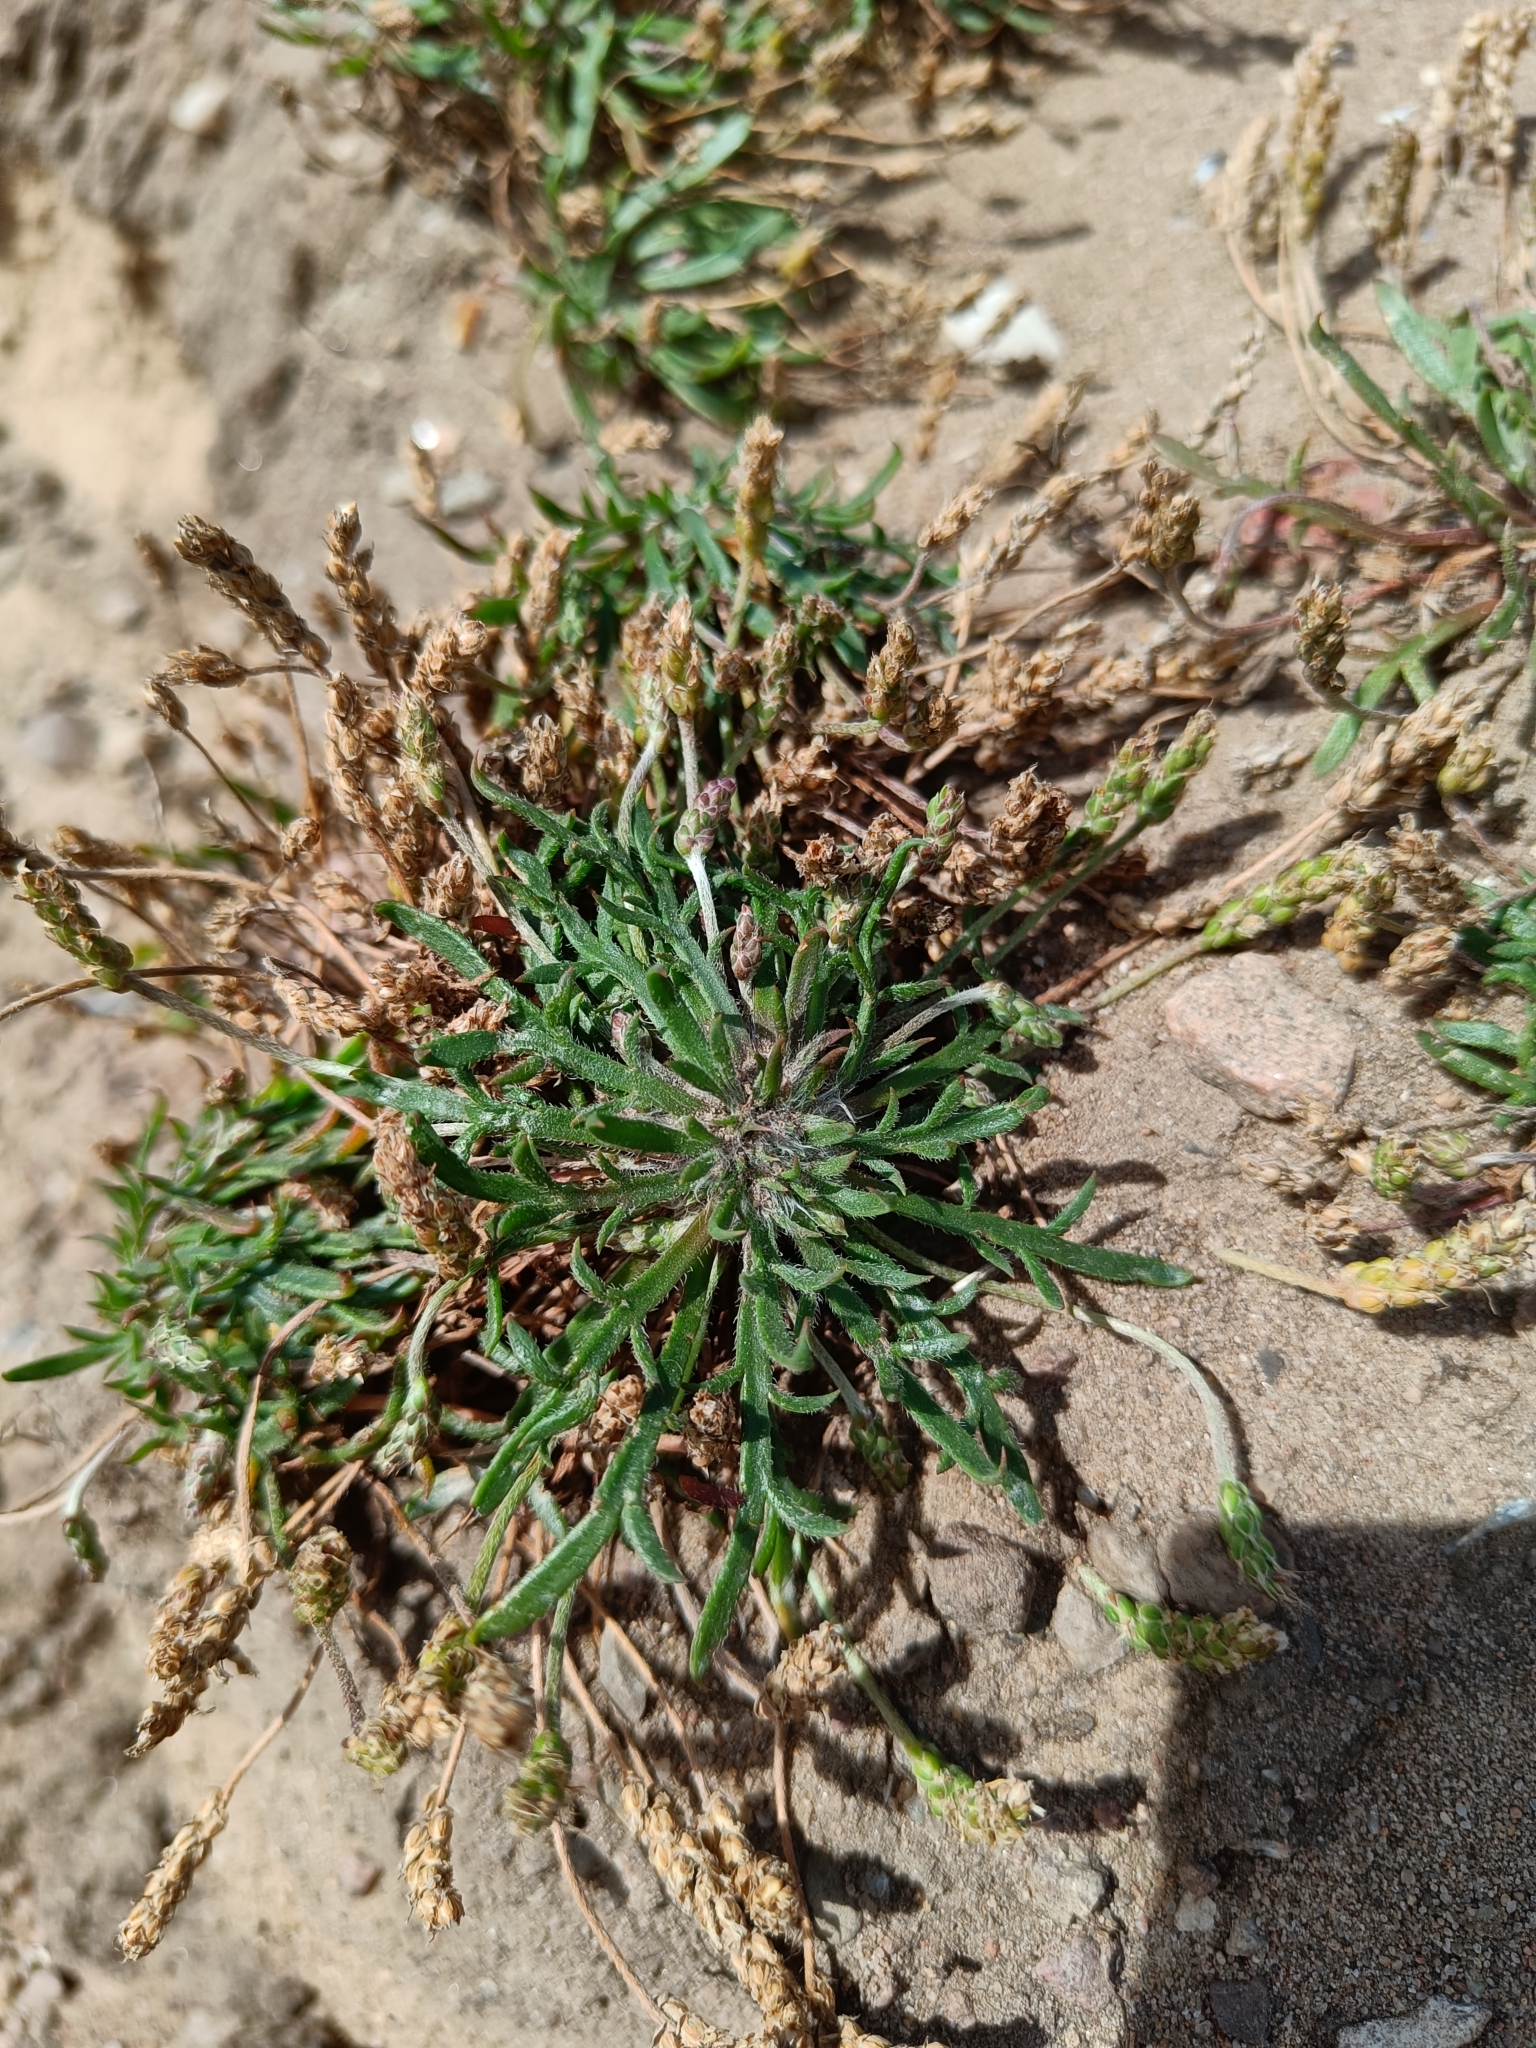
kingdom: Plantae
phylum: Tracheophyta
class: Magnoliopsida
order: Lamiales
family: Plantaginaceae
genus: Plantago
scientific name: Plantago coronopus
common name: Buck's-horn plantain
